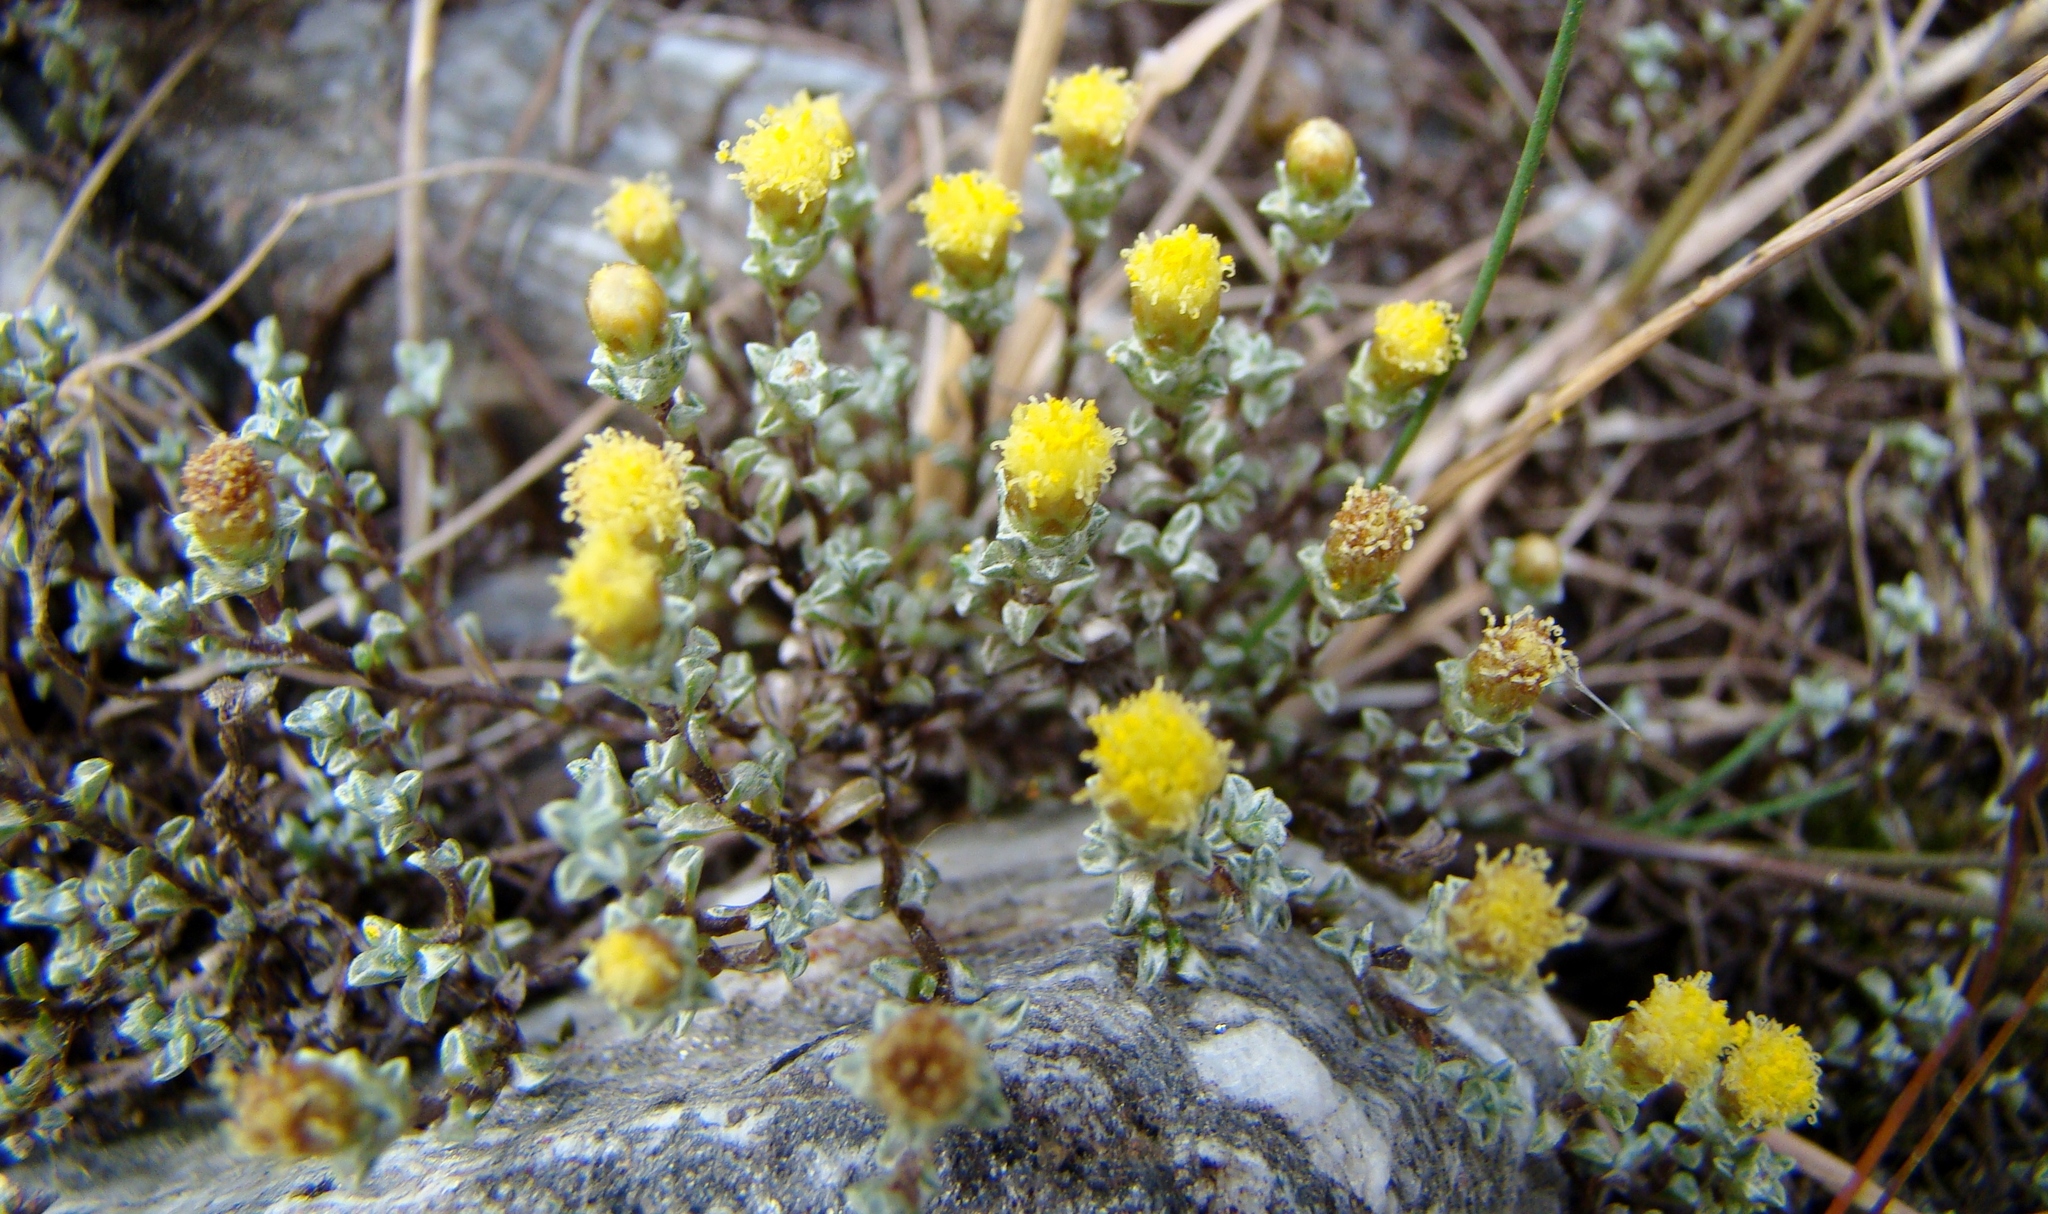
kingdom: Plantae
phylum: Tracheophyta
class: Magnoliopsida
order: Asterales
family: Asteraceae
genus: Raoulia
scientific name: Raoulia hookeri
